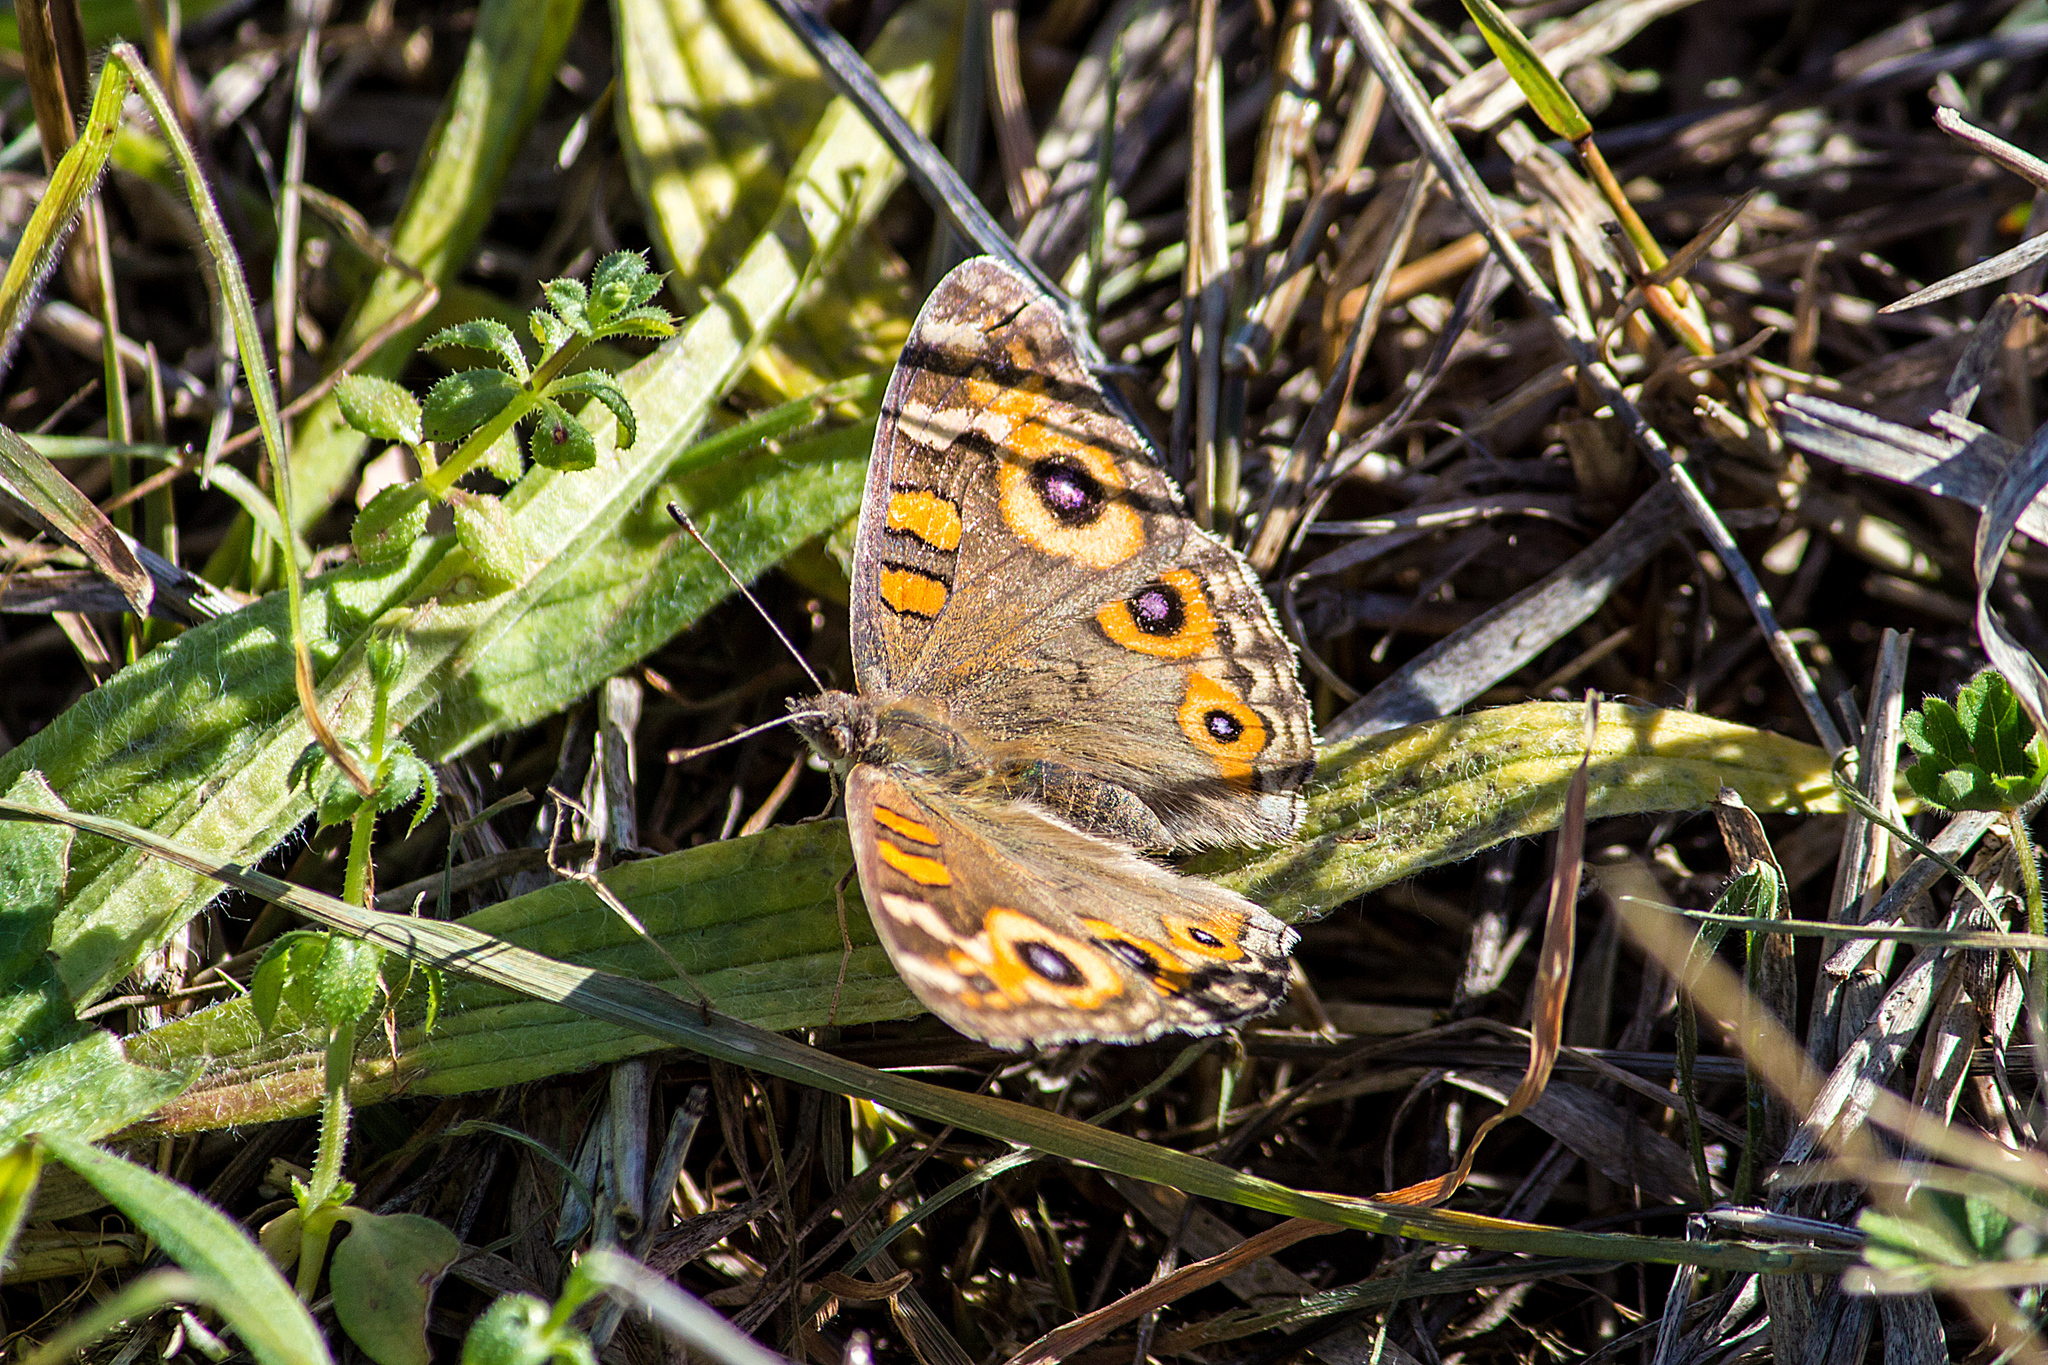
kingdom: Animalia
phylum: Arthropoda
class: Insecta
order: Lepidoptera
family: Nymphalidae
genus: Junonia
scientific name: Junonia villida
